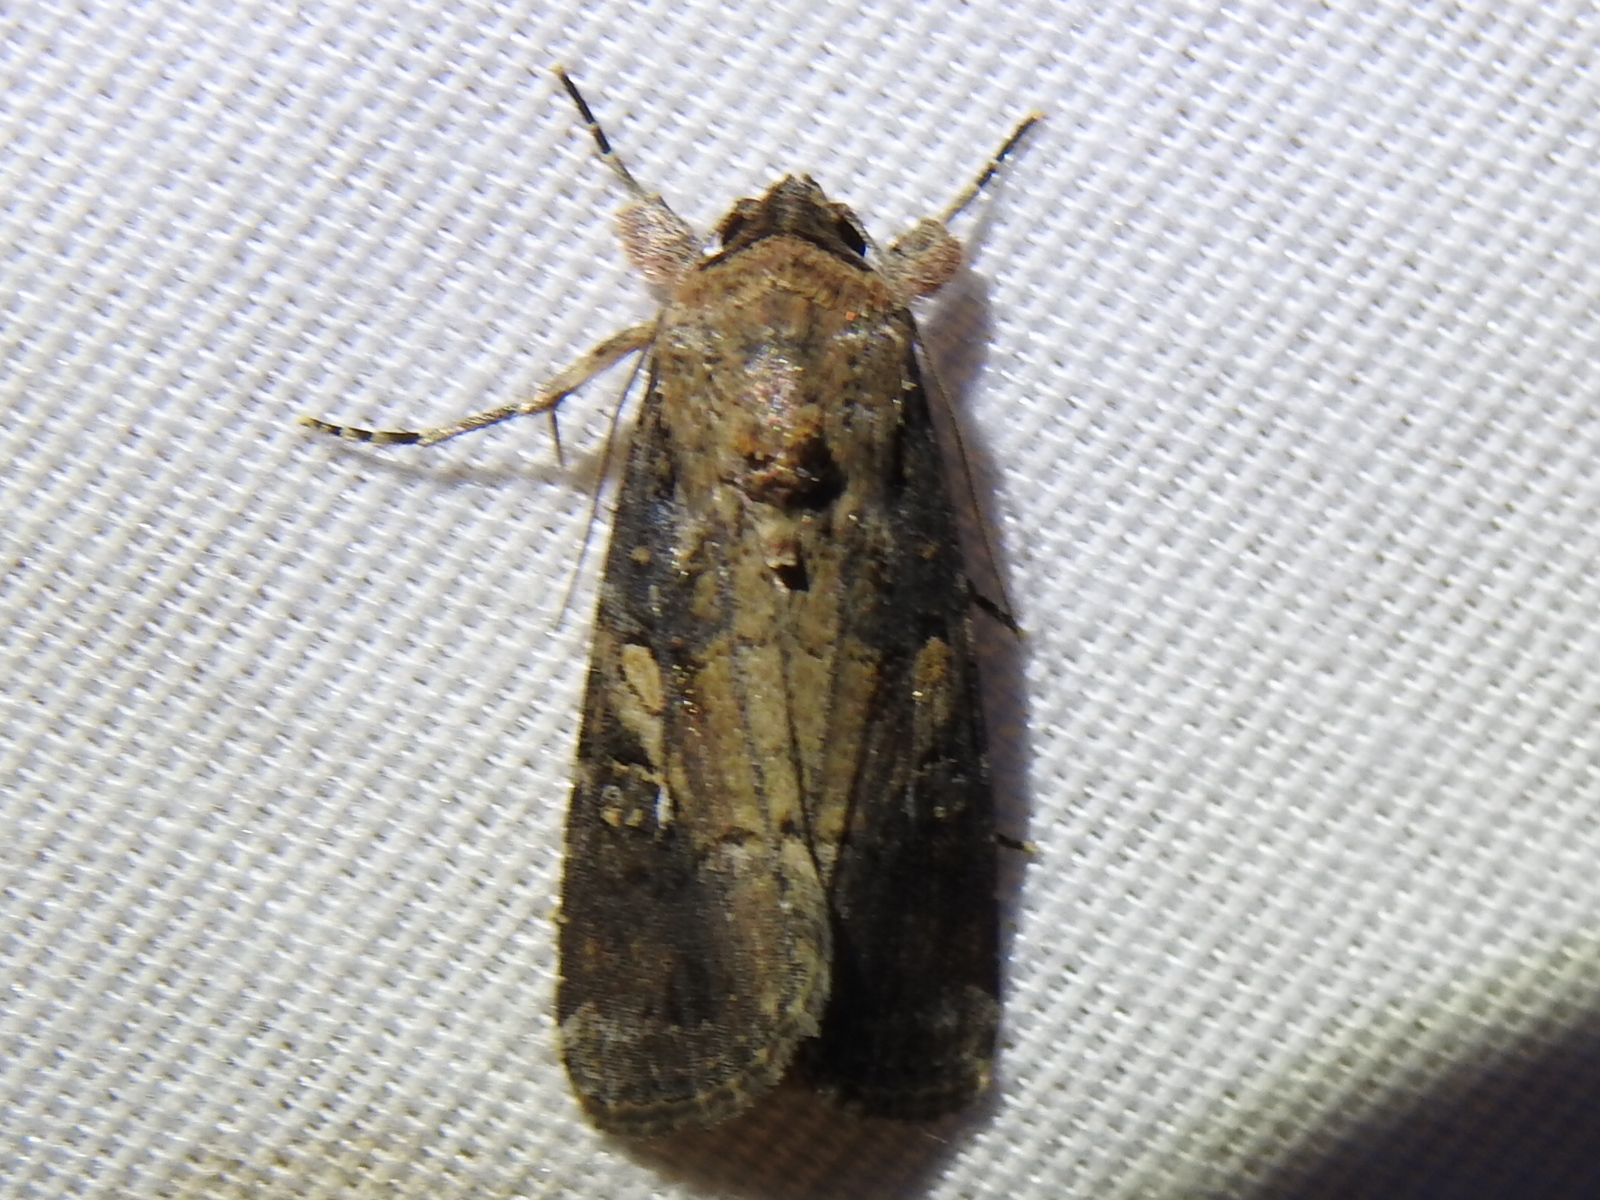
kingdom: Animalia
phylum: Arthropoda
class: Insecta
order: Lepidoptera
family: Noctuidae
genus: Spodoptera
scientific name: Spodoptera frugiperda
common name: Fall armyworm
